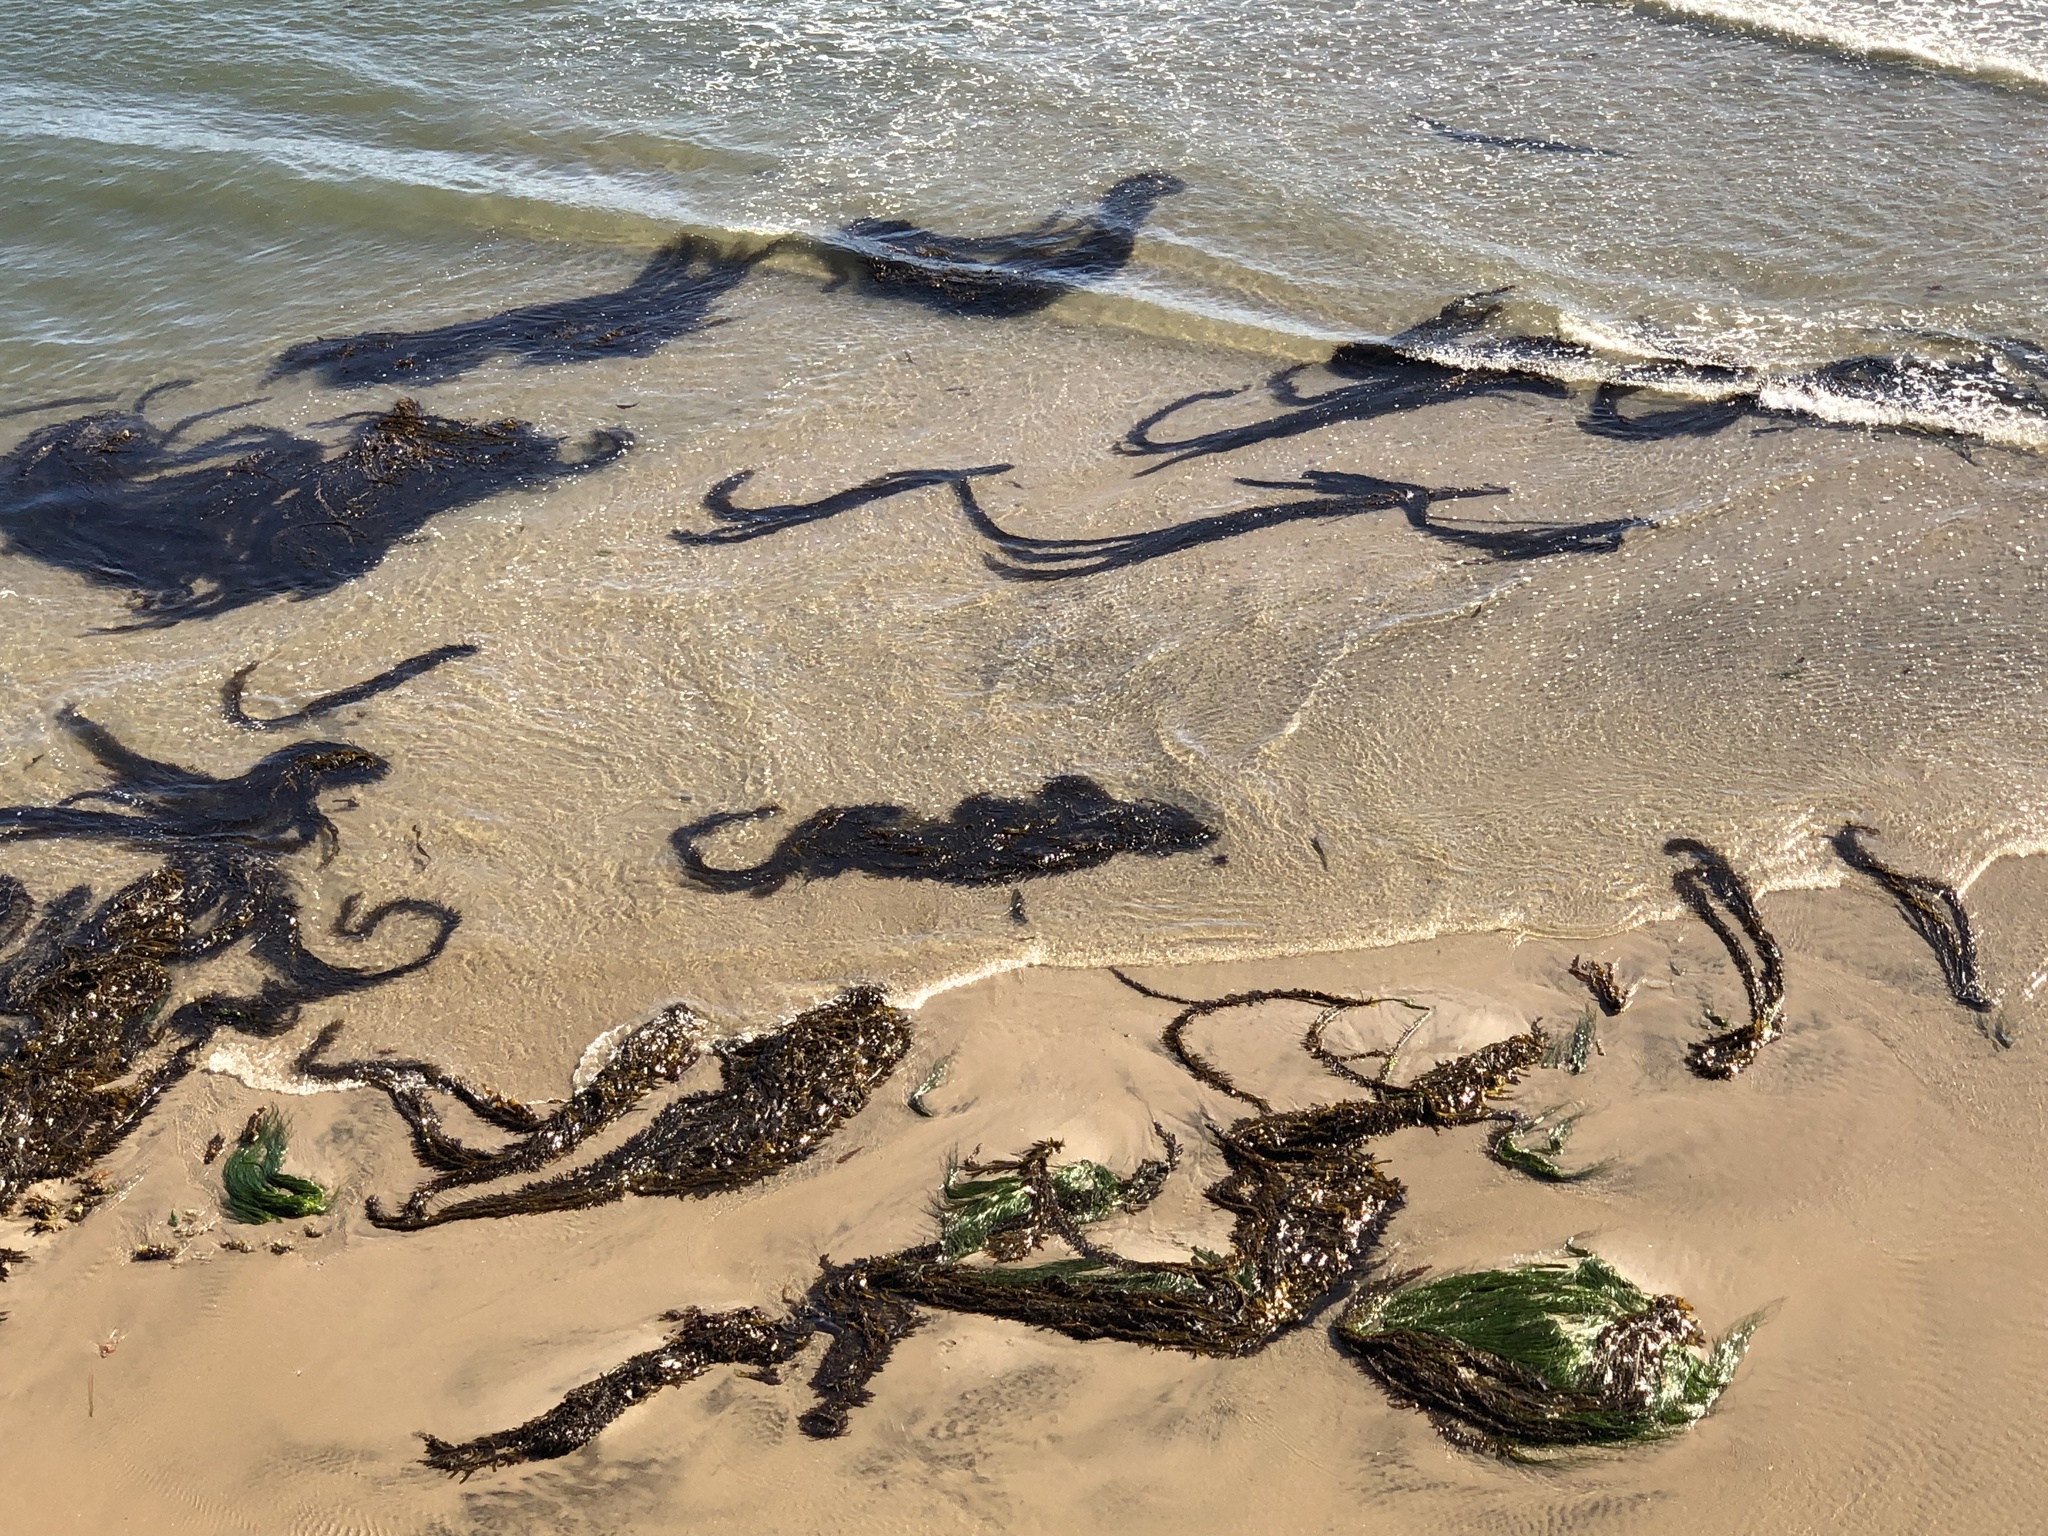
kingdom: Chromista
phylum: Ochrophyta
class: Phaeophyceae
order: Laminariales
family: Lessoniaceae
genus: Egregia
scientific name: Egregia menziesii
